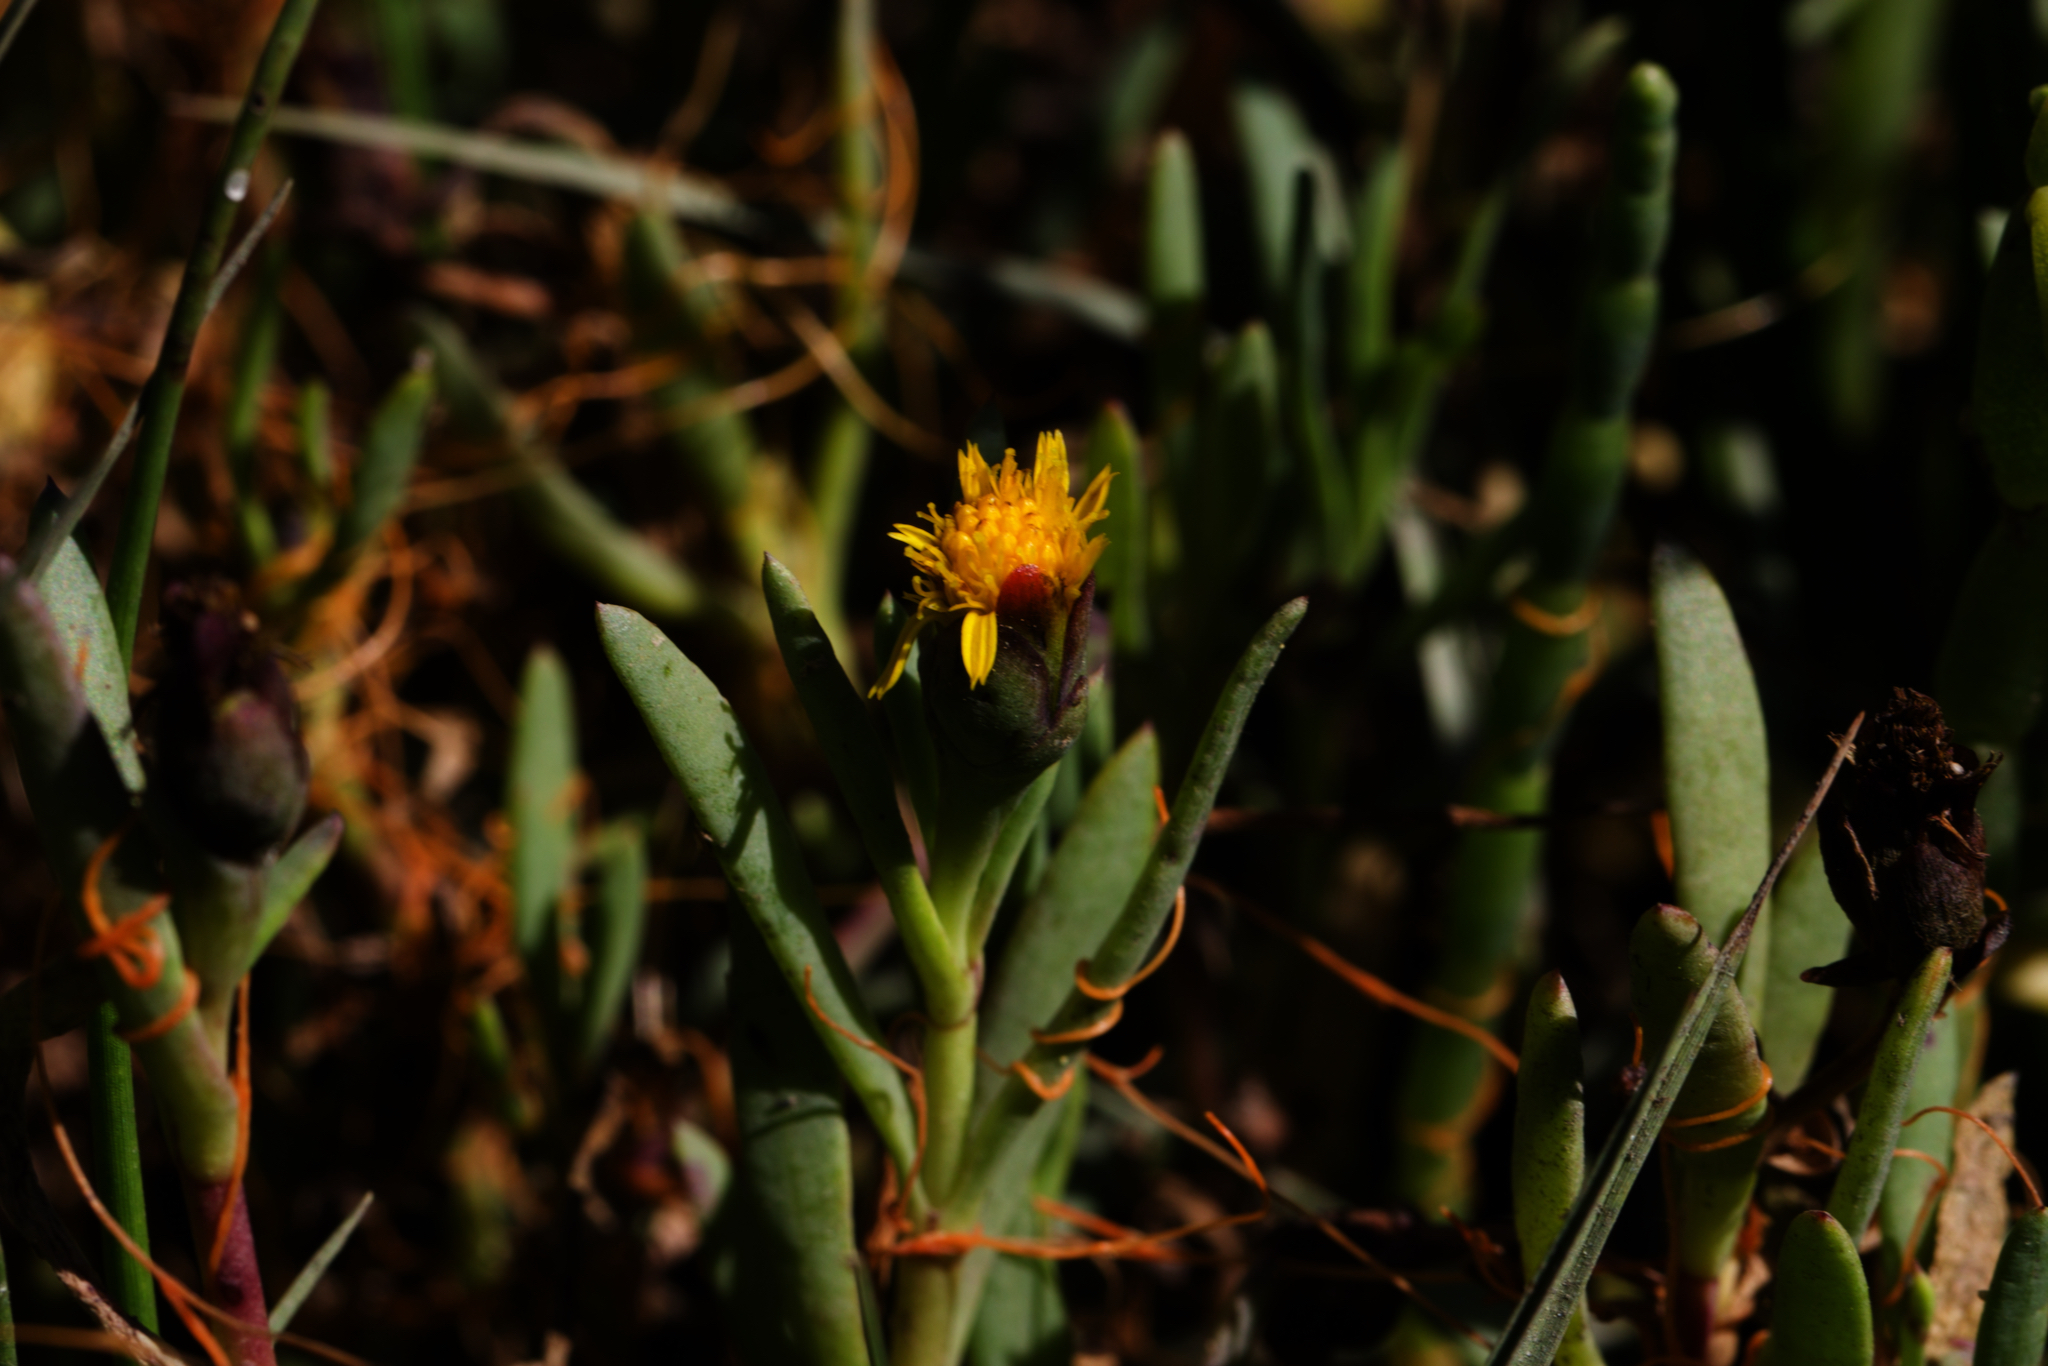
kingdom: Plantae
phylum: Tracheophyta
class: Magnoliopsida
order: Asterales
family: Asteraceae
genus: Jaumea
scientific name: Jaumea carnosa
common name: Fleshy jaumea
